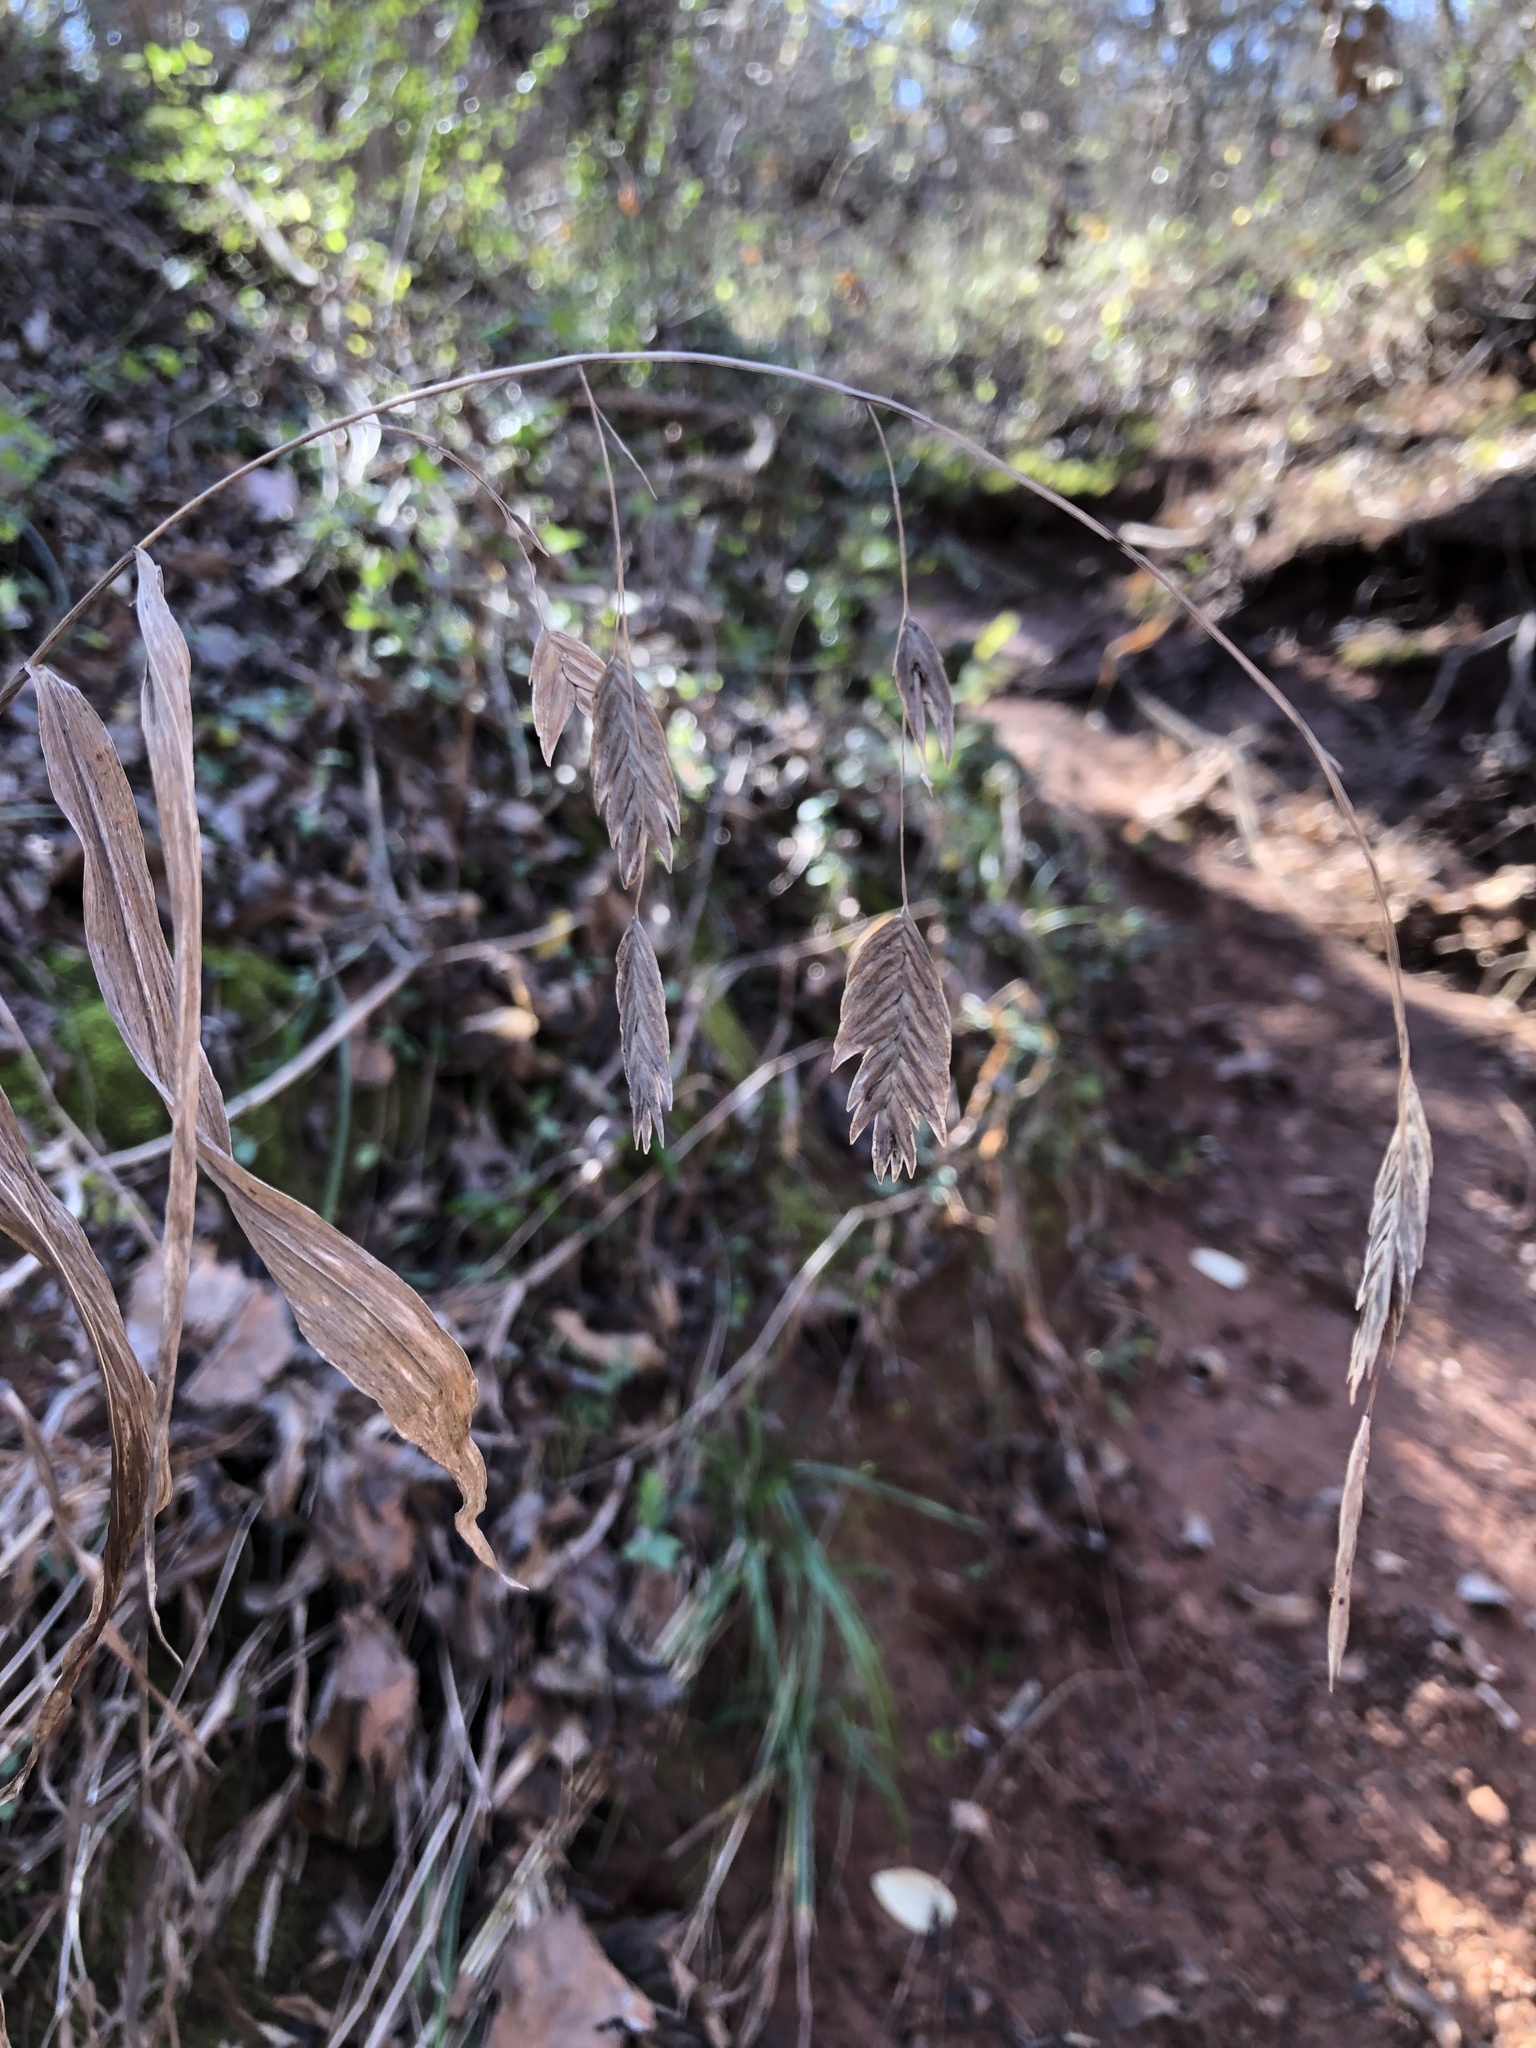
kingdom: Plantae
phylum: Tracheophyta
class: Liliopsida
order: Poales
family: Poaceae
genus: Chasmanthium
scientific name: Chasmanthium latifolium
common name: Broad-leaved chasmanthium
